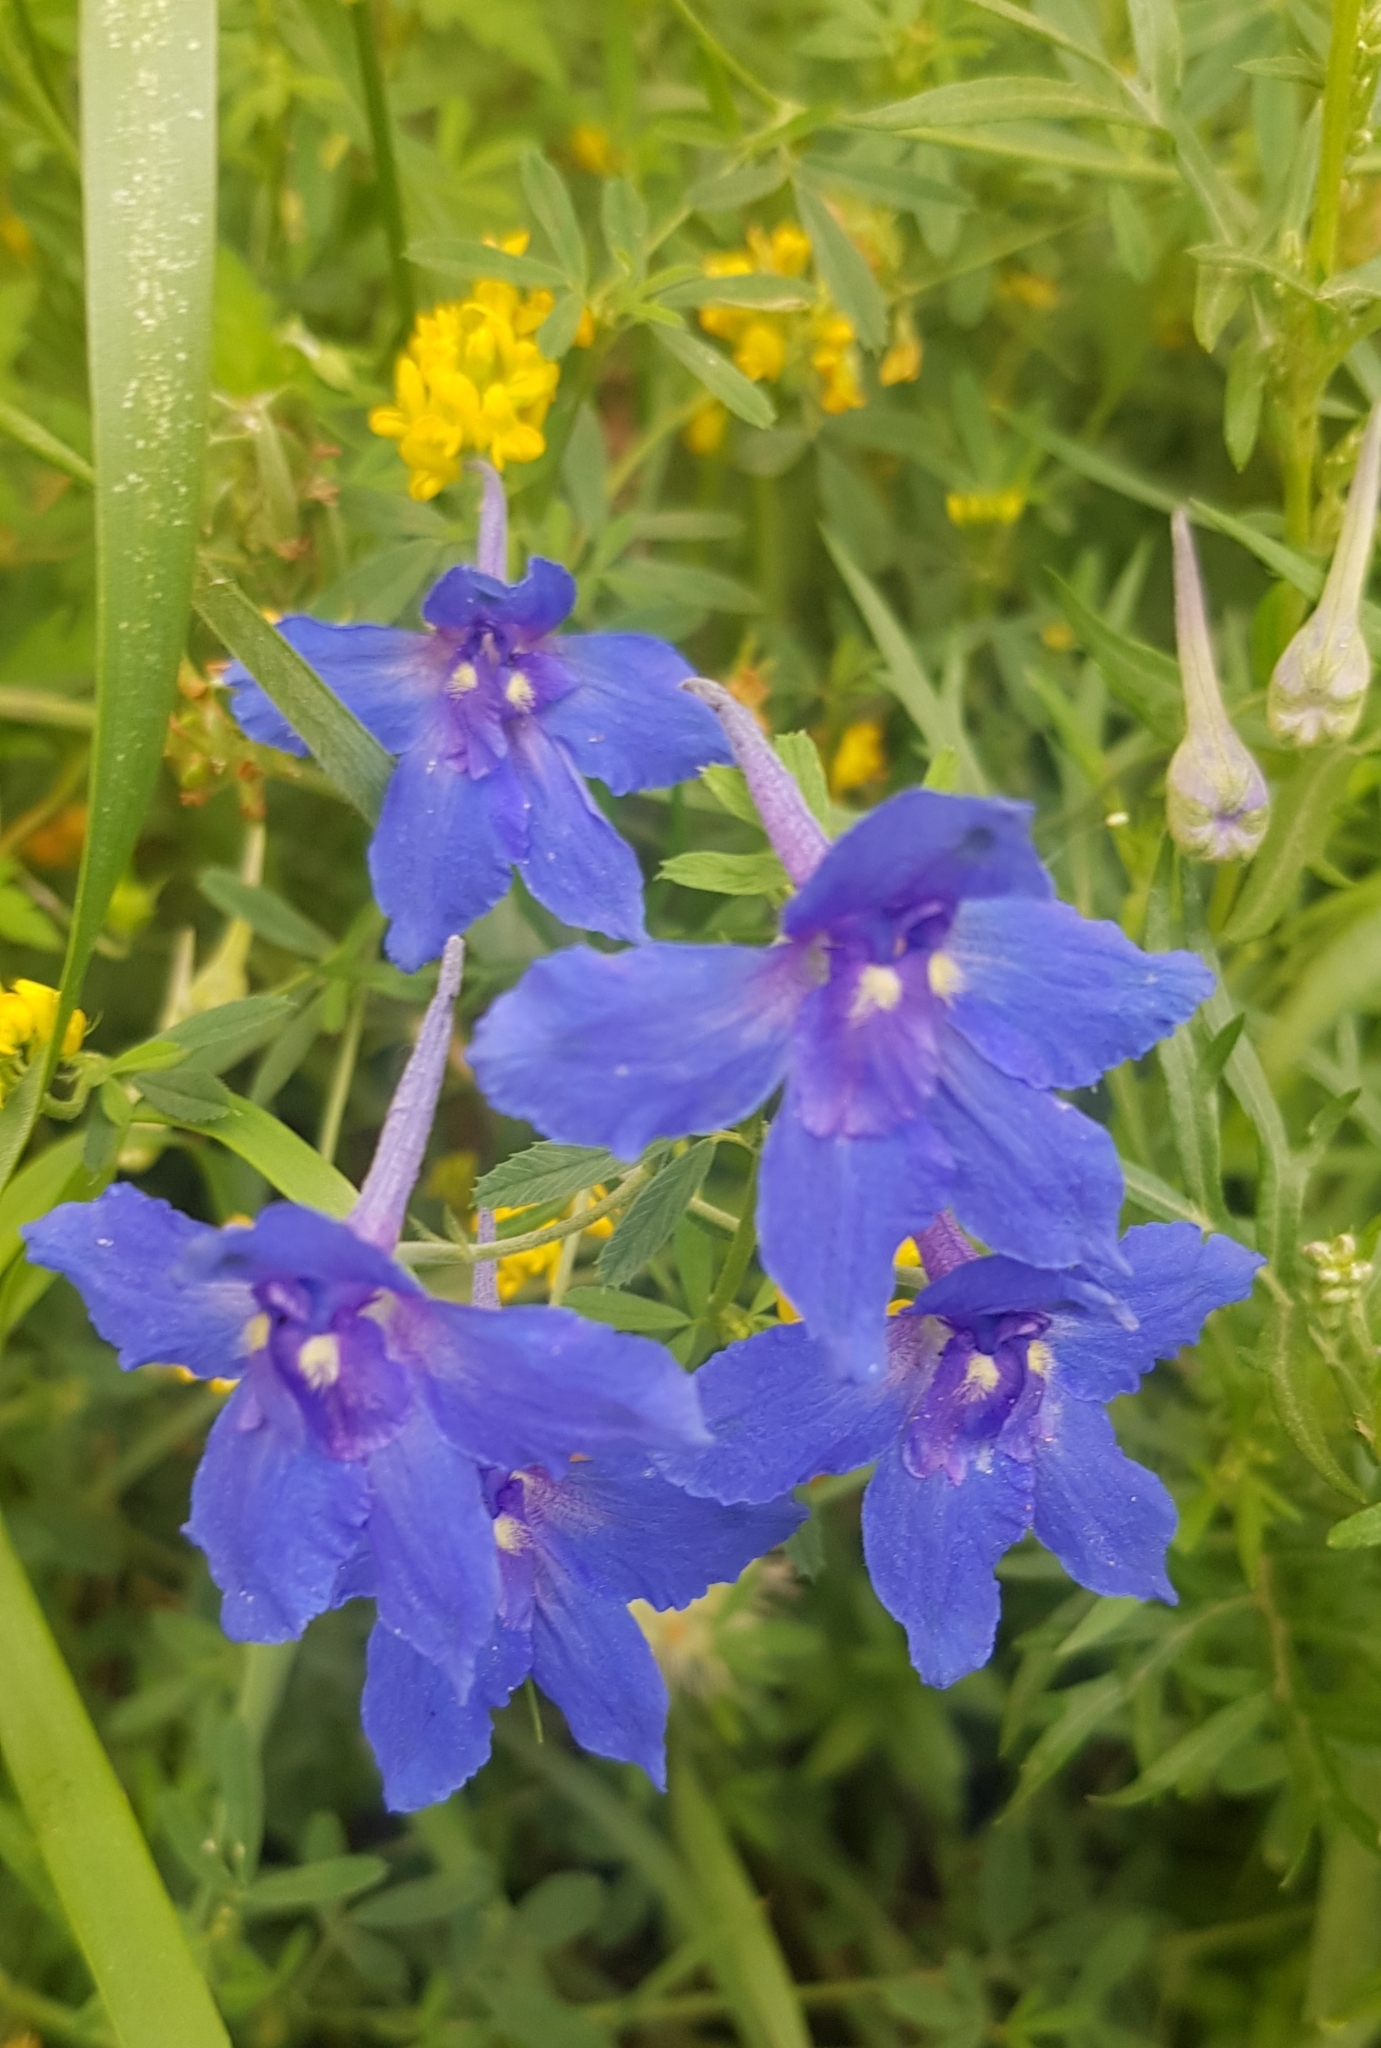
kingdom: Plantae
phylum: Tracheophyta
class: Magnoliopsida
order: Ranunculales
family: Ranunculaceae
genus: Delphinium
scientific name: Delphinium grandiflorum
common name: Siberian larkspur
